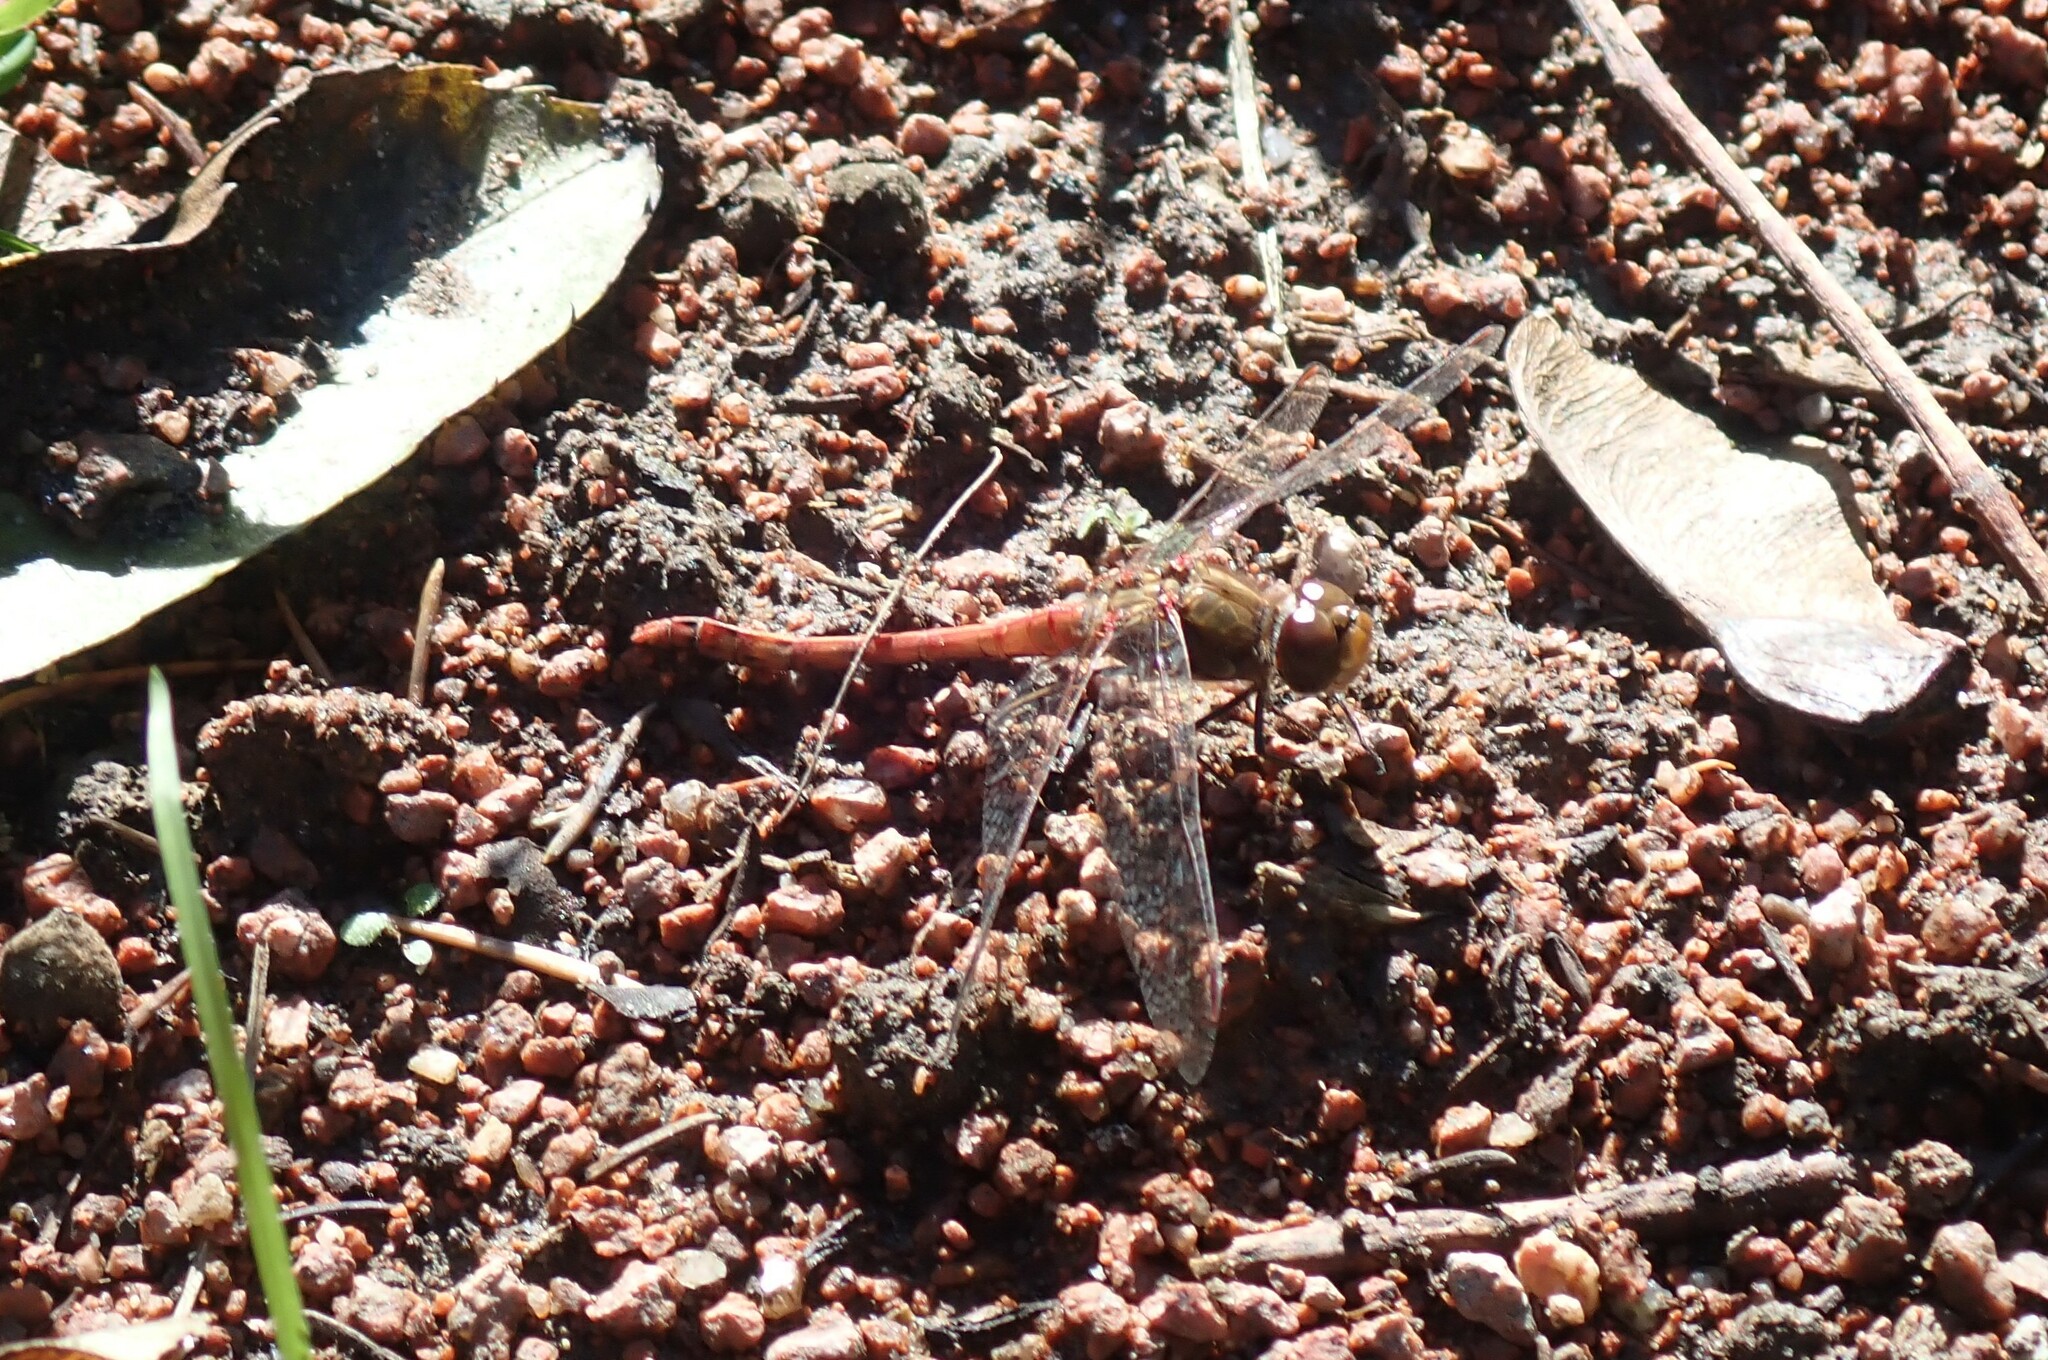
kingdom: Animalia
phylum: Arthropoda
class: Insecta
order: Odonata
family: Libellulidae
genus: Sympetrum
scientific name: Sympetrum striolatum
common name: Common darter
